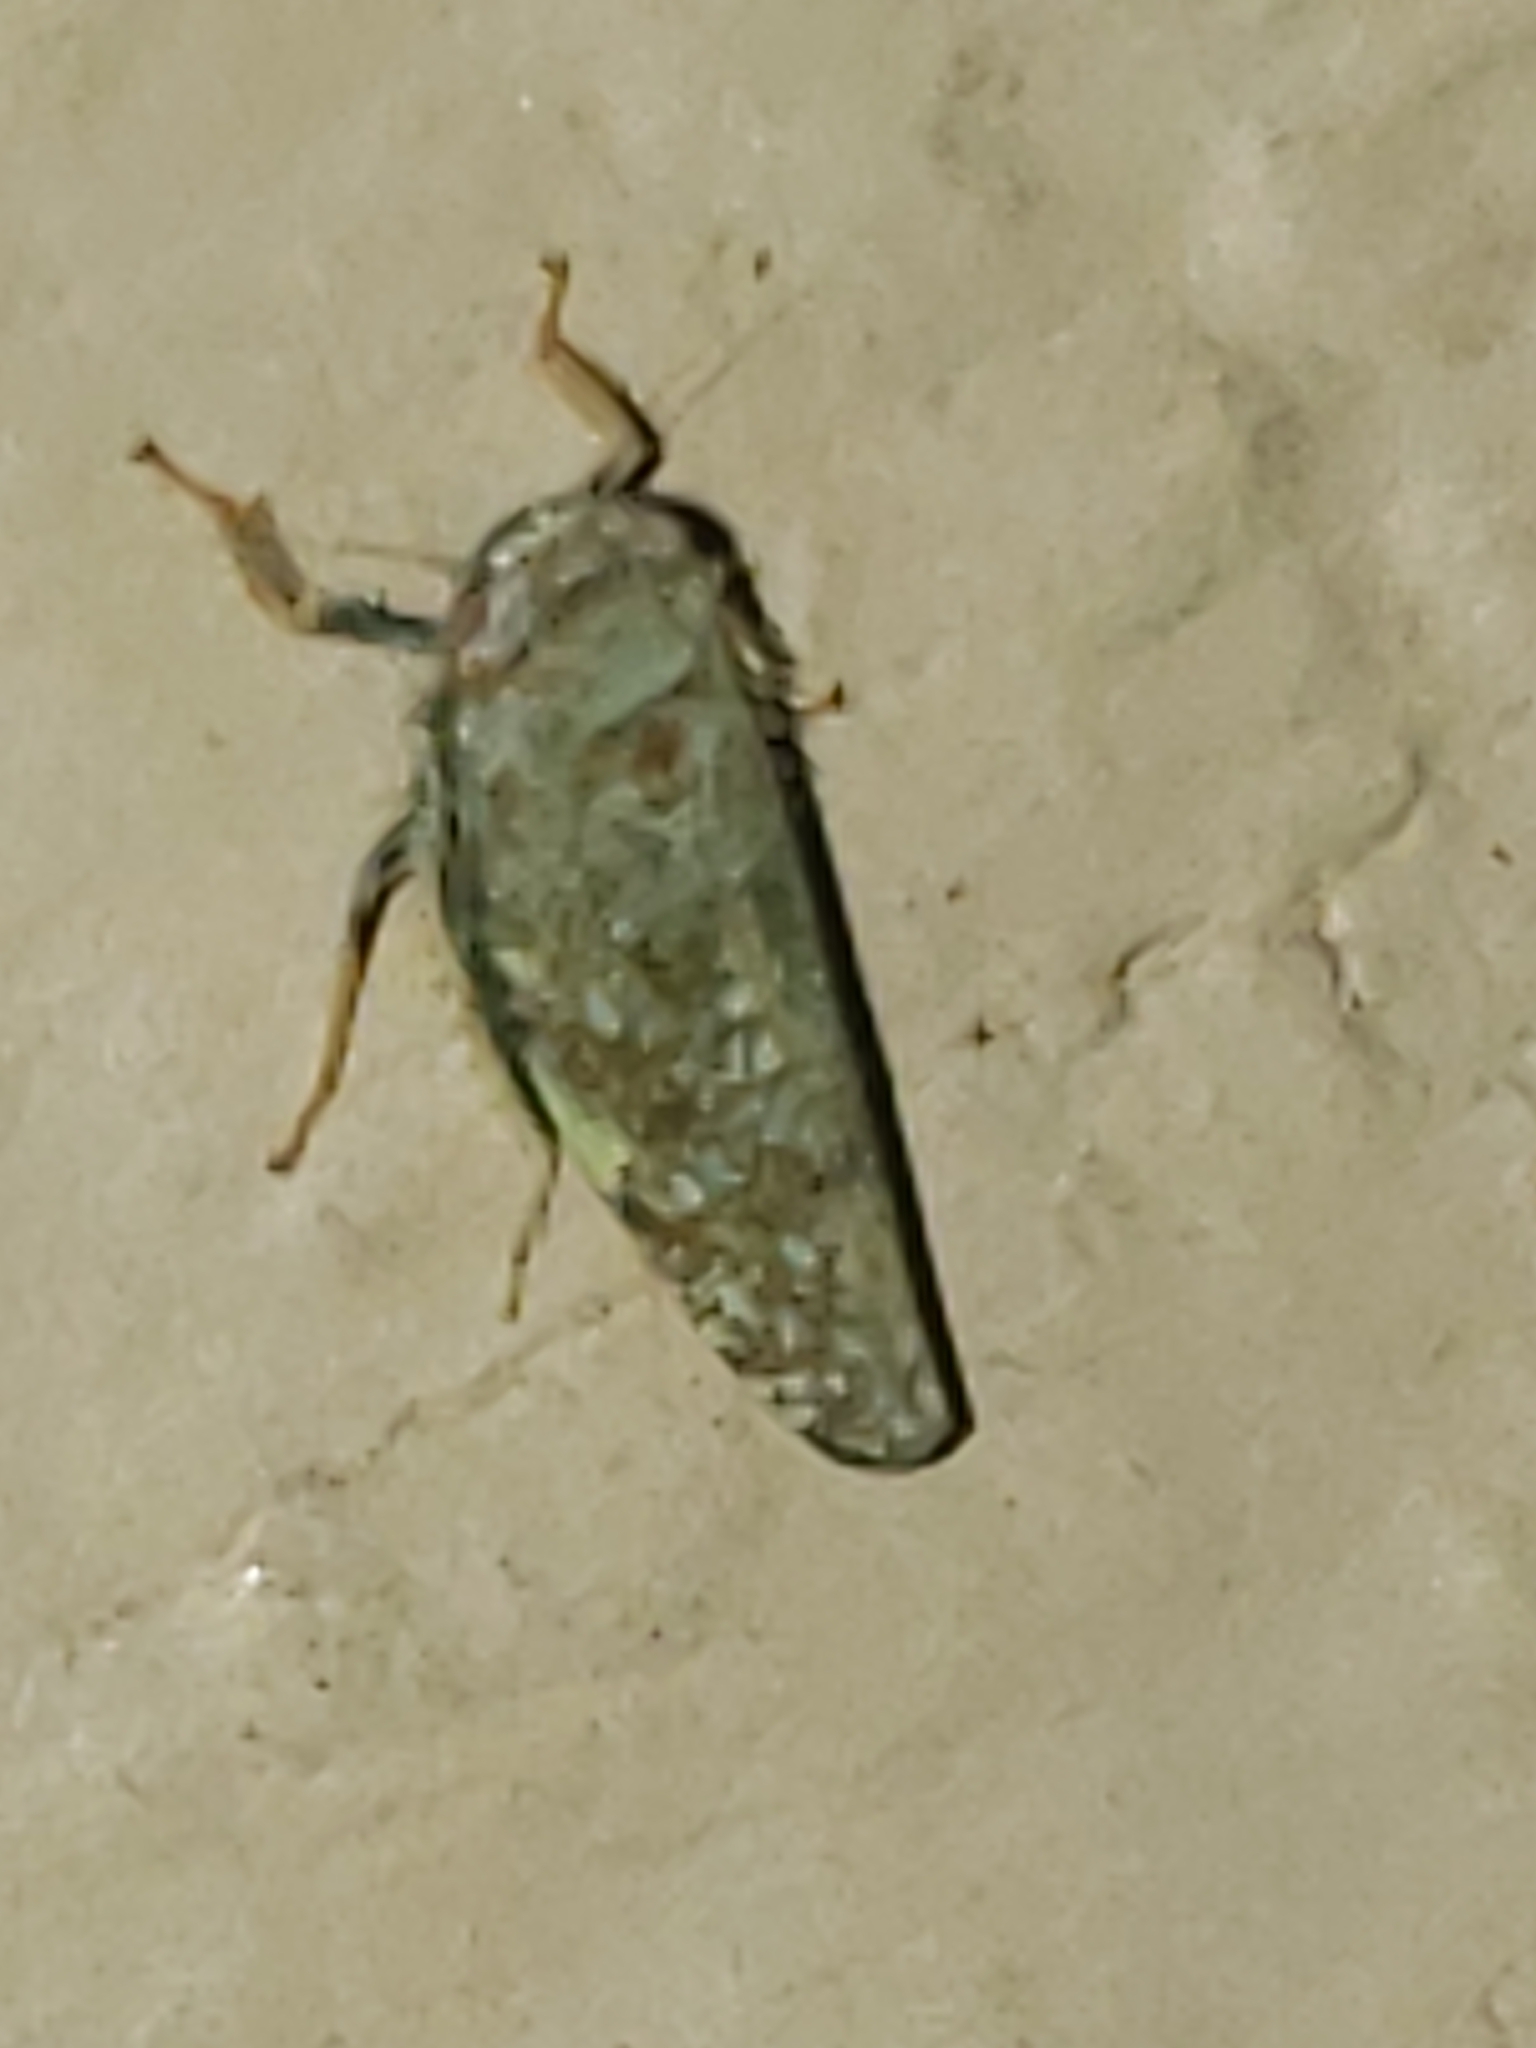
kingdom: Animalia
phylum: Arthropoda
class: Insecta
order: Hemiptera
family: Cicadellidae
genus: Orientus
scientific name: Orientus ishidae
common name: Japanese leafhopper
